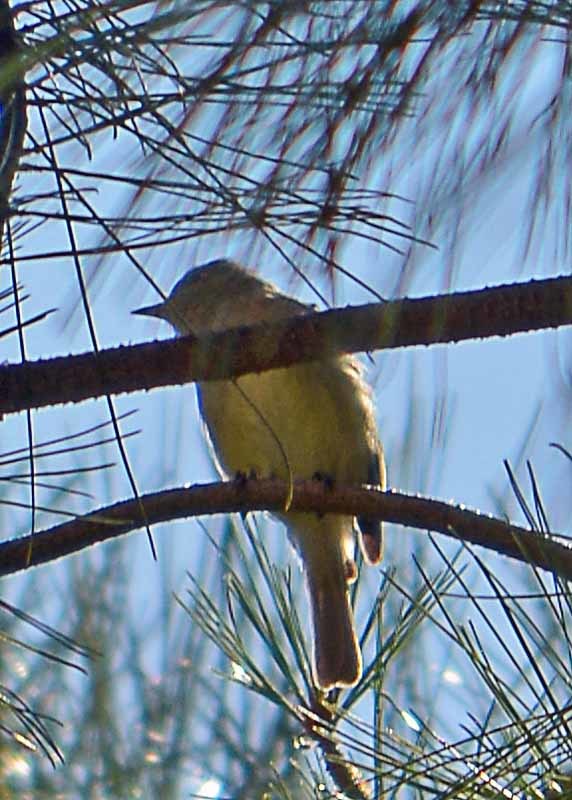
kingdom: Animalia
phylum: Chordata
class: Aves
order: Passeriformes
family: Tyrannidae
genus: Camptostoma
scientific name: Camptostoma imberbe
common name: Northern beardless-tyrannulet
